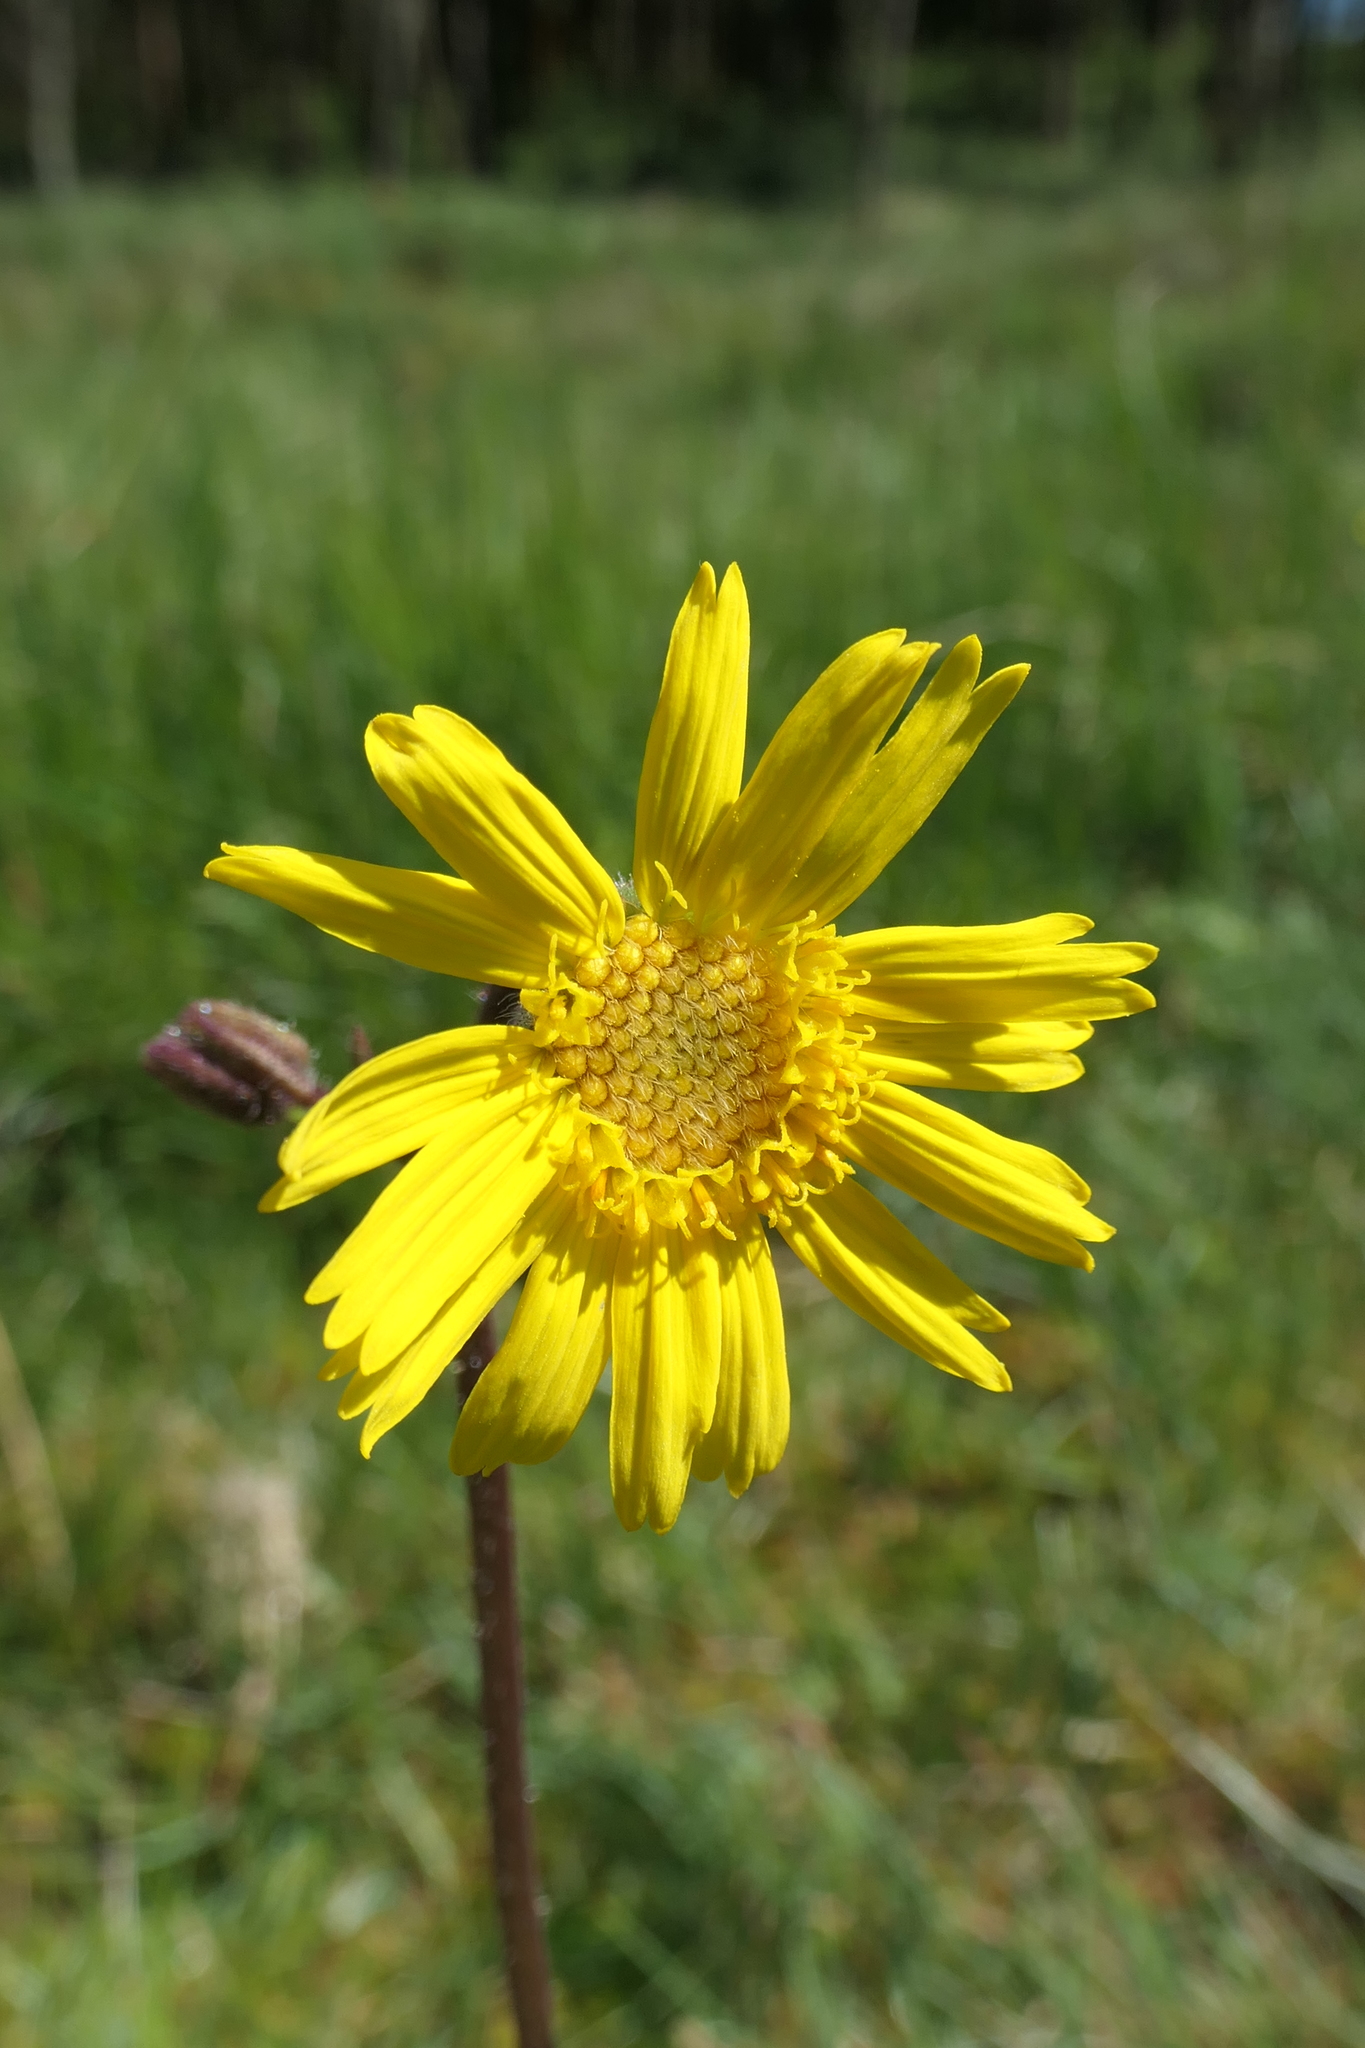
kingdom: Plantae
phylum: Tracheophyta
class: Magnoliopsida
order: Asterales
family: Asteraceae
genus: Arnica
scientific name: Arnica montana
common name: Leopard's bane
